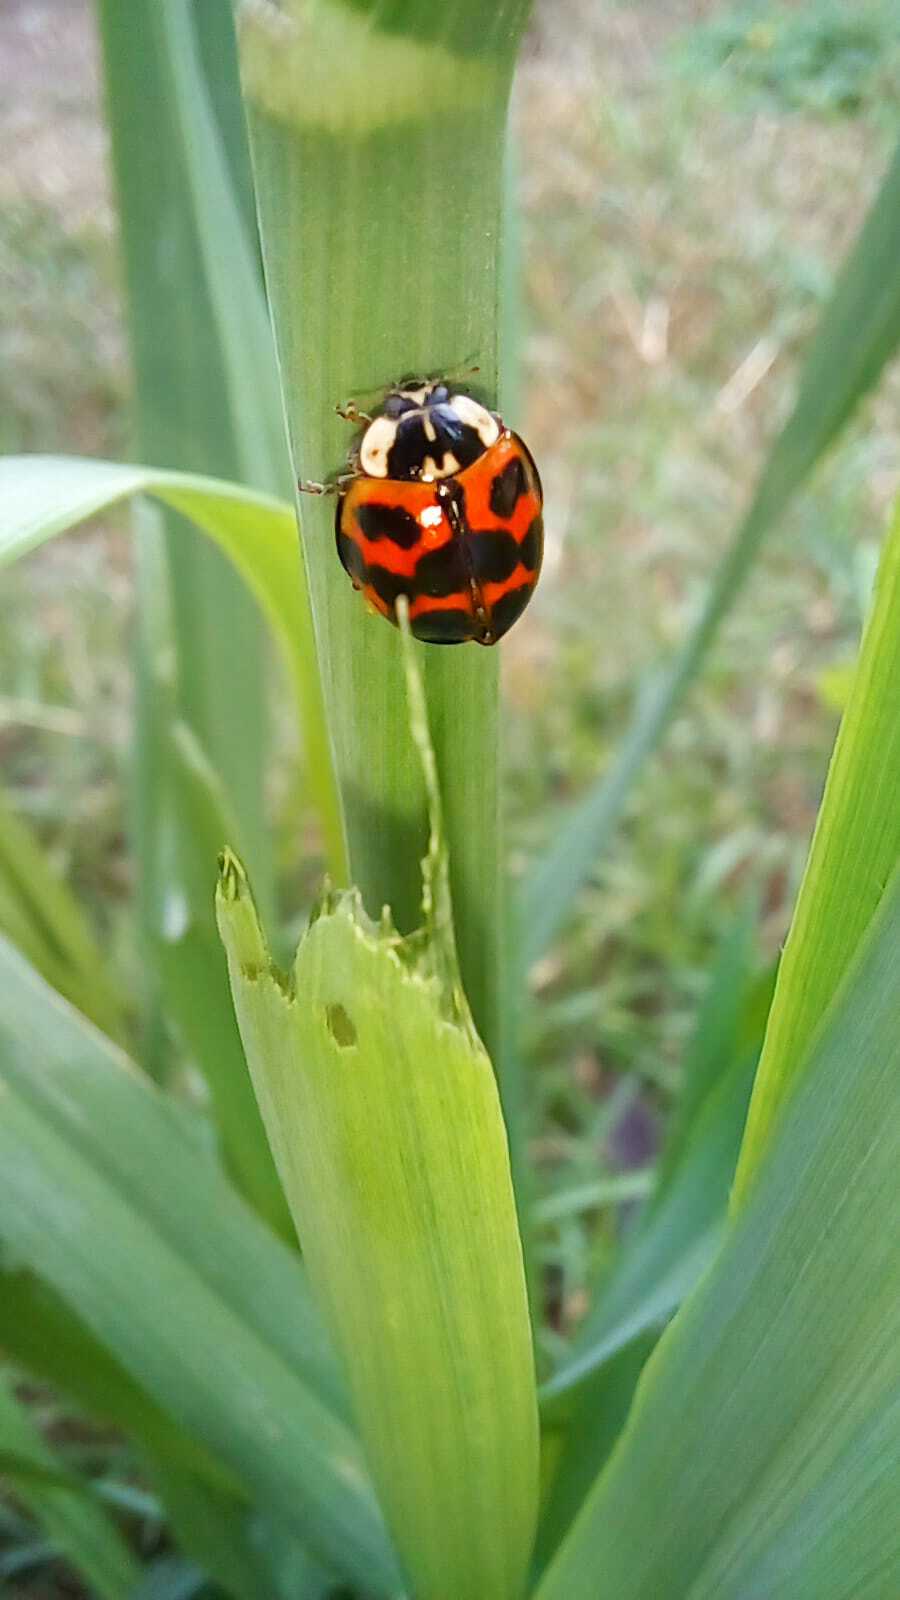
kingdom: Animalia
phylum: Arthropoda
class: Insecta
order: Coleoptera
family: Coccinellidae
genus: Harmonia
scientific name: Harmonia axyridis
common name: Harlequin ladybird
